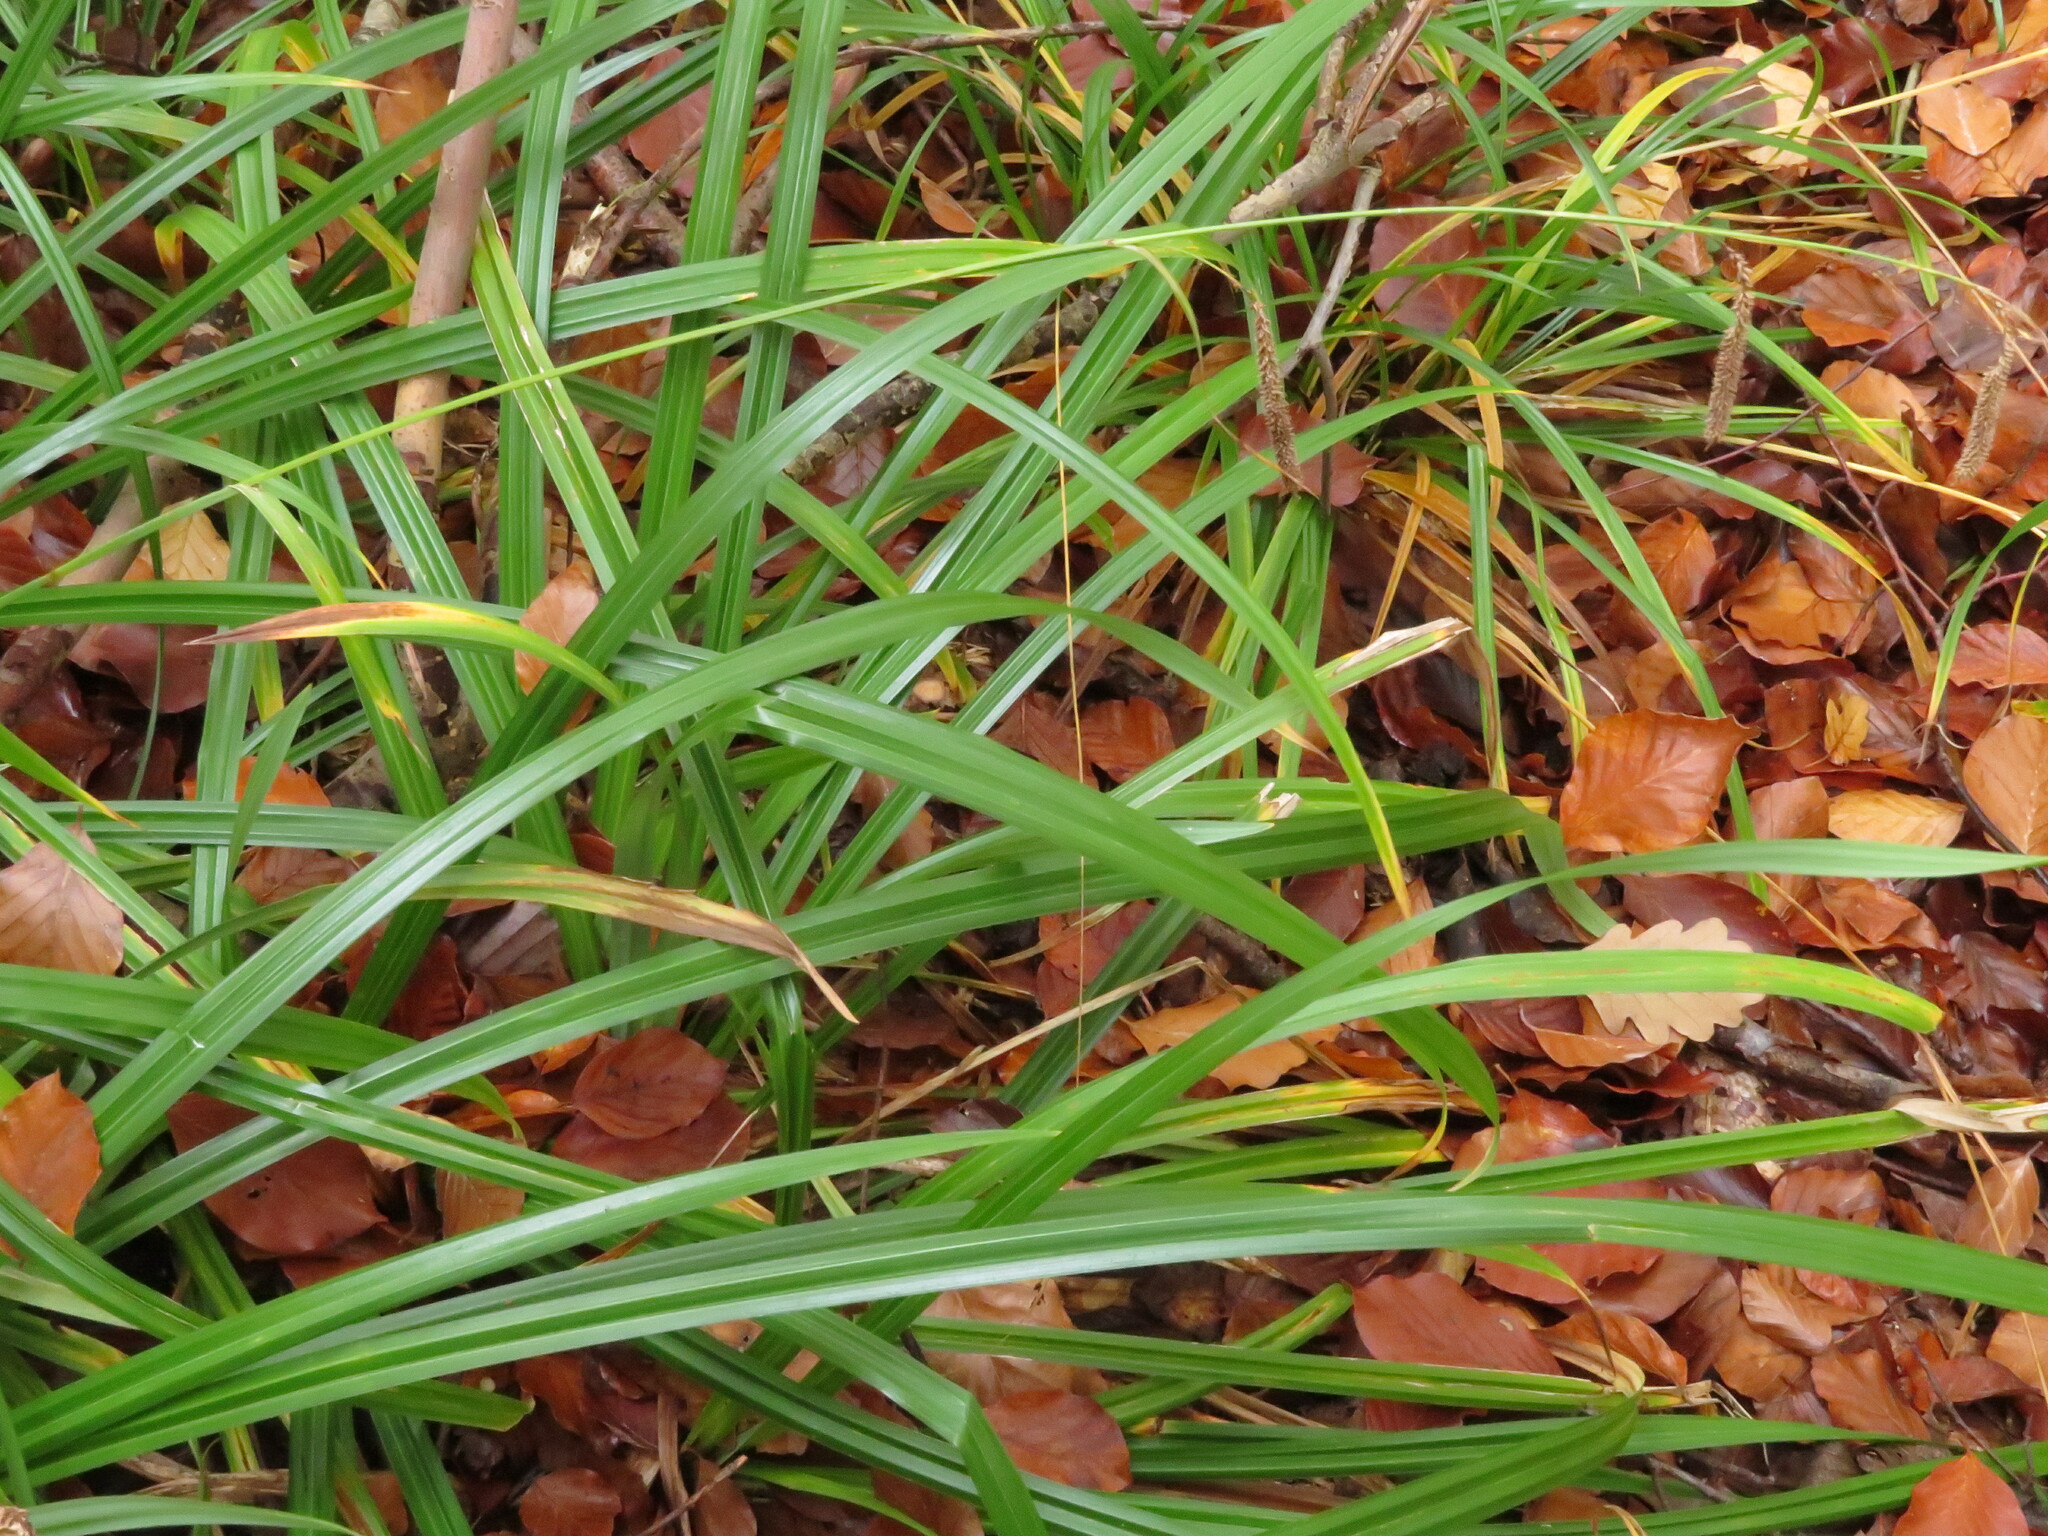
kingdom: Plantae
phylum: Tracheophyta
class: Liliopsida
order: Poales
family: Cyperaceae
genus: Carex
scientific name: Carex agastachys
